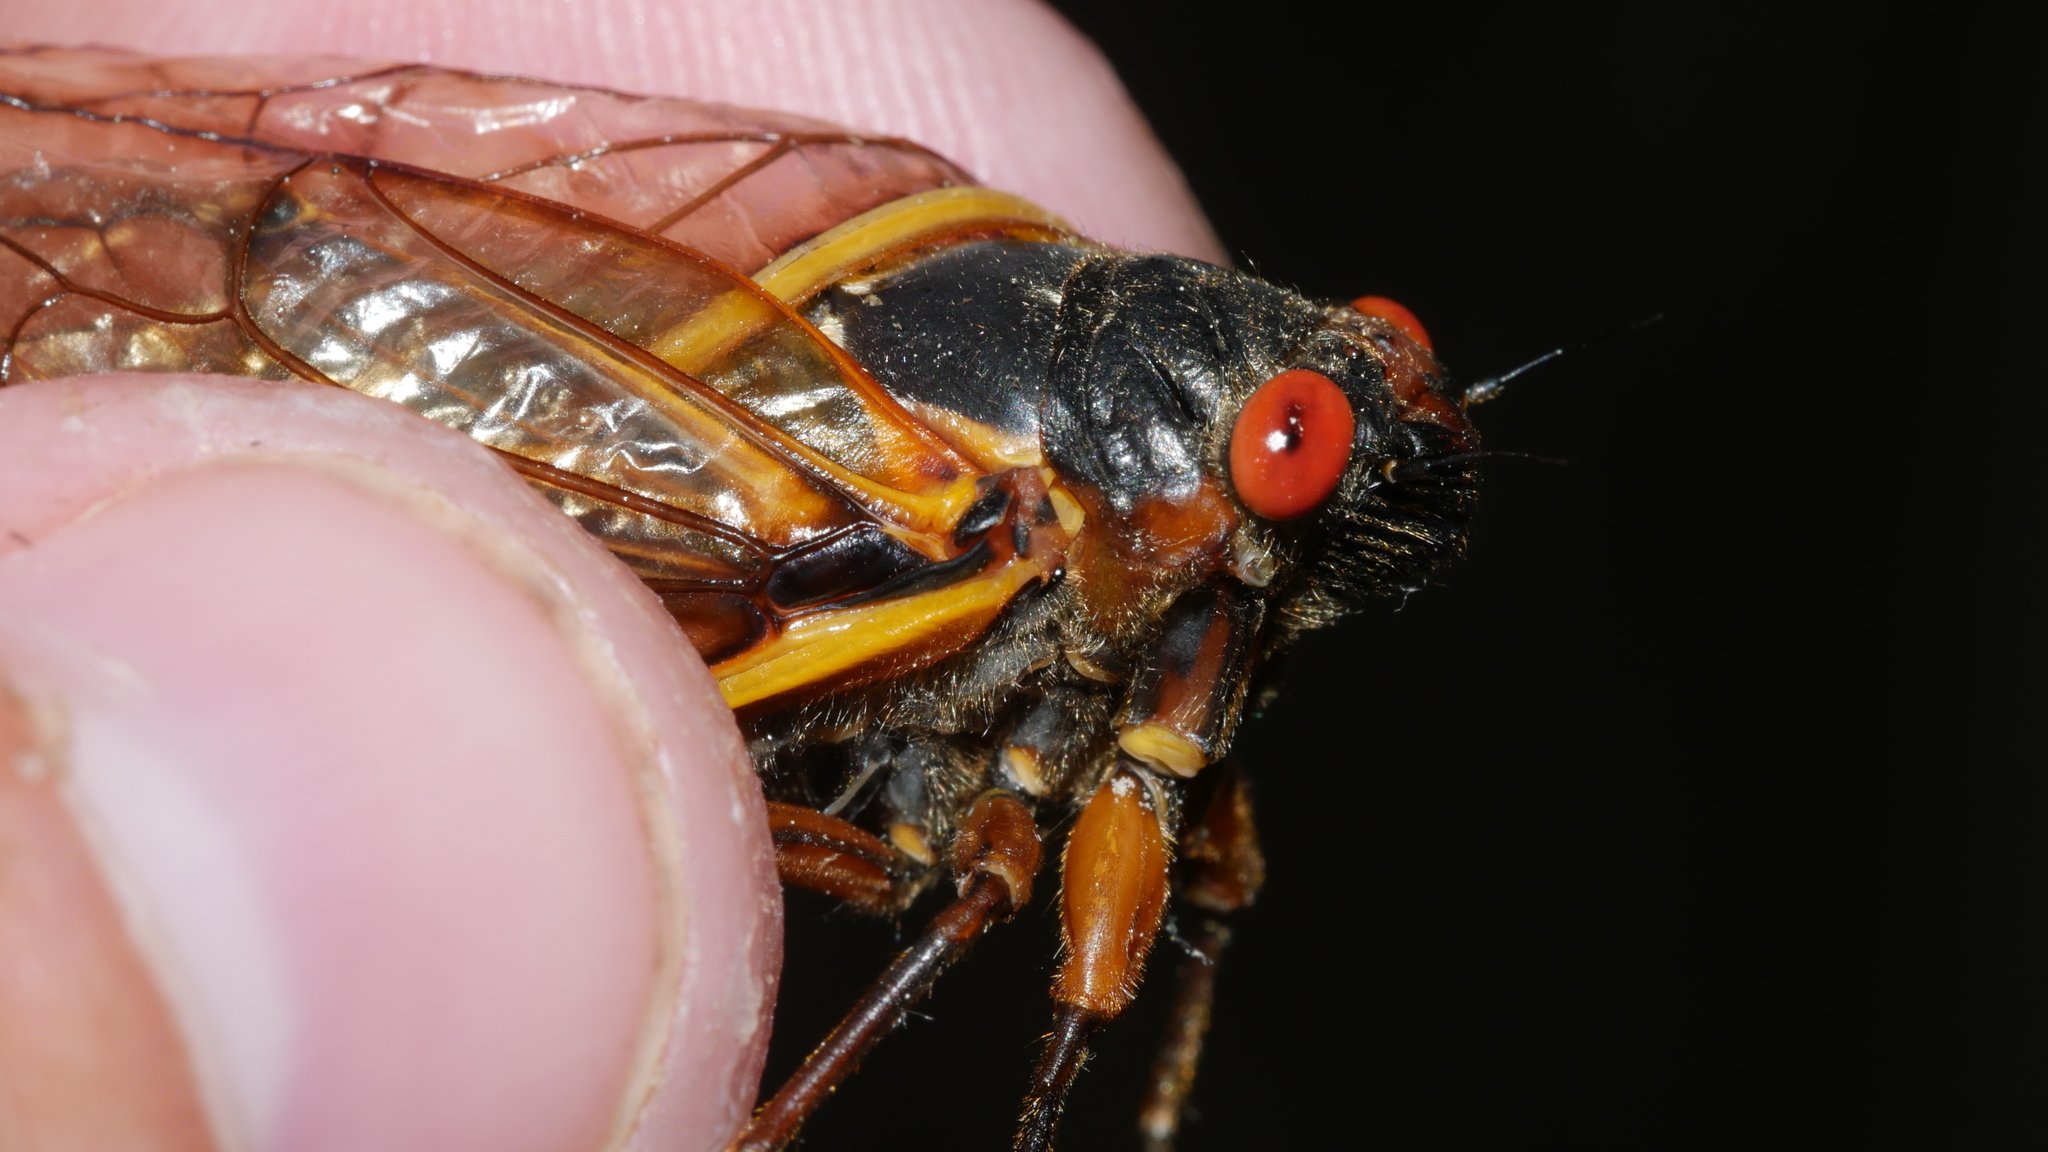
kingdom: Animalia
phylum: Arthropoda
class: Insecta
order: Hemiptera
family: Cicadidae
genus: Magicicada
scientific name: Magicicada septendecim
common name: Periodical cicada
